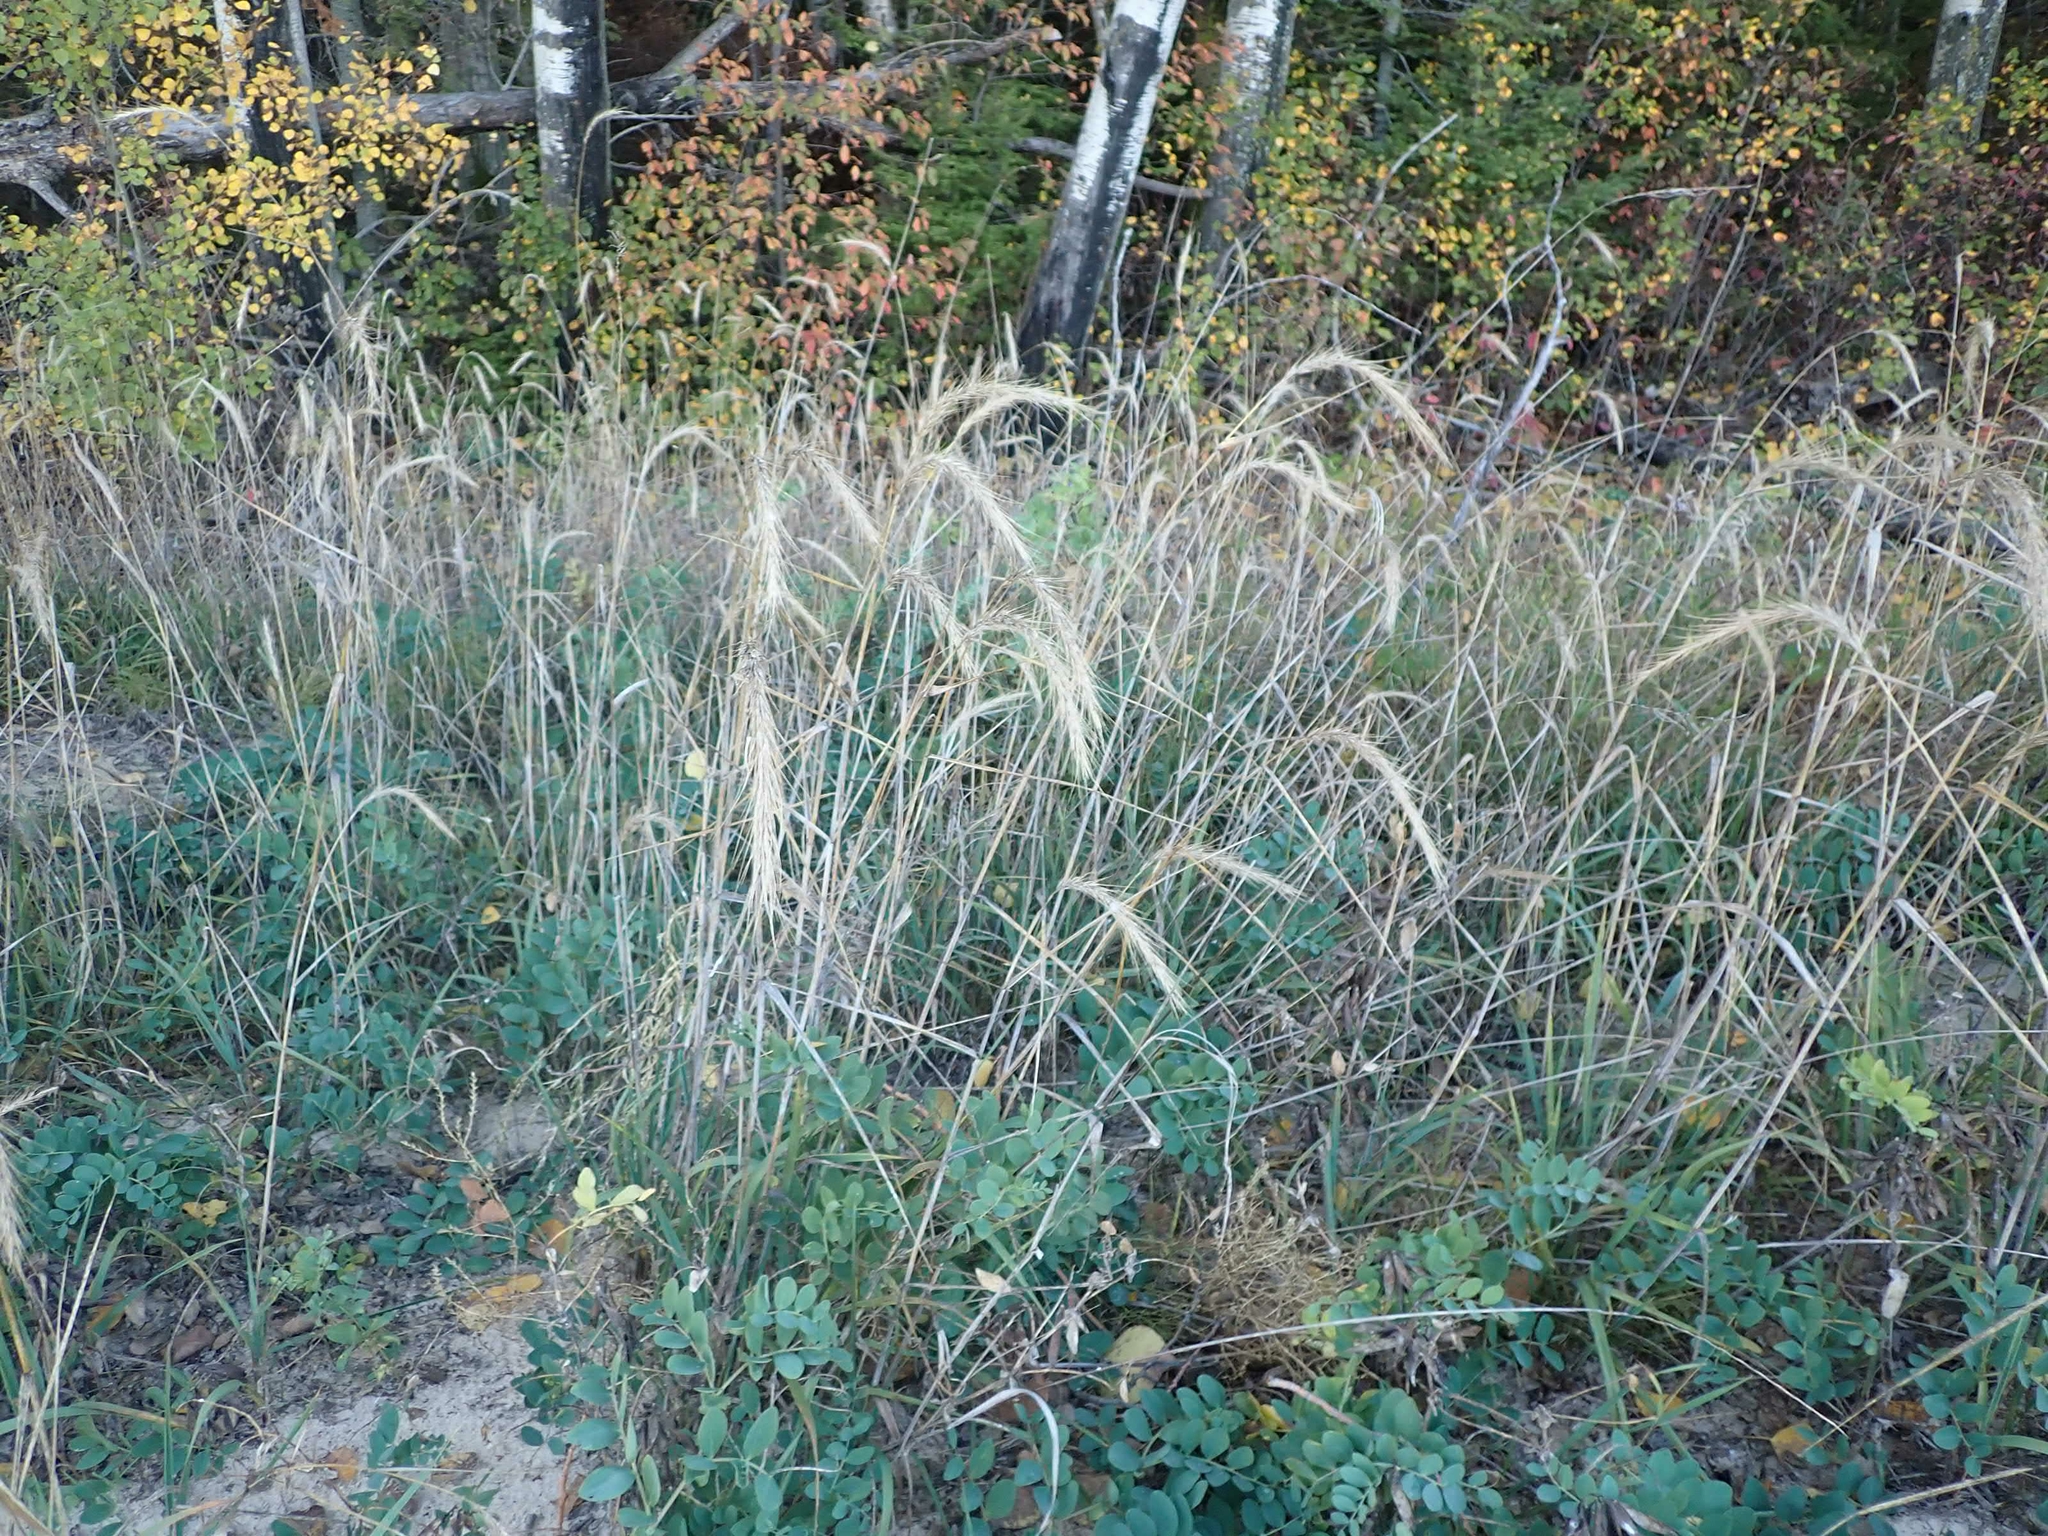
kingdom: Plantae
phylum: Tracheophyta
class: Liliopsida
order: Poales
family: Poaceae
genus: Elymus
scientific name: Elymus canadensis
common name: Canada wild rye
